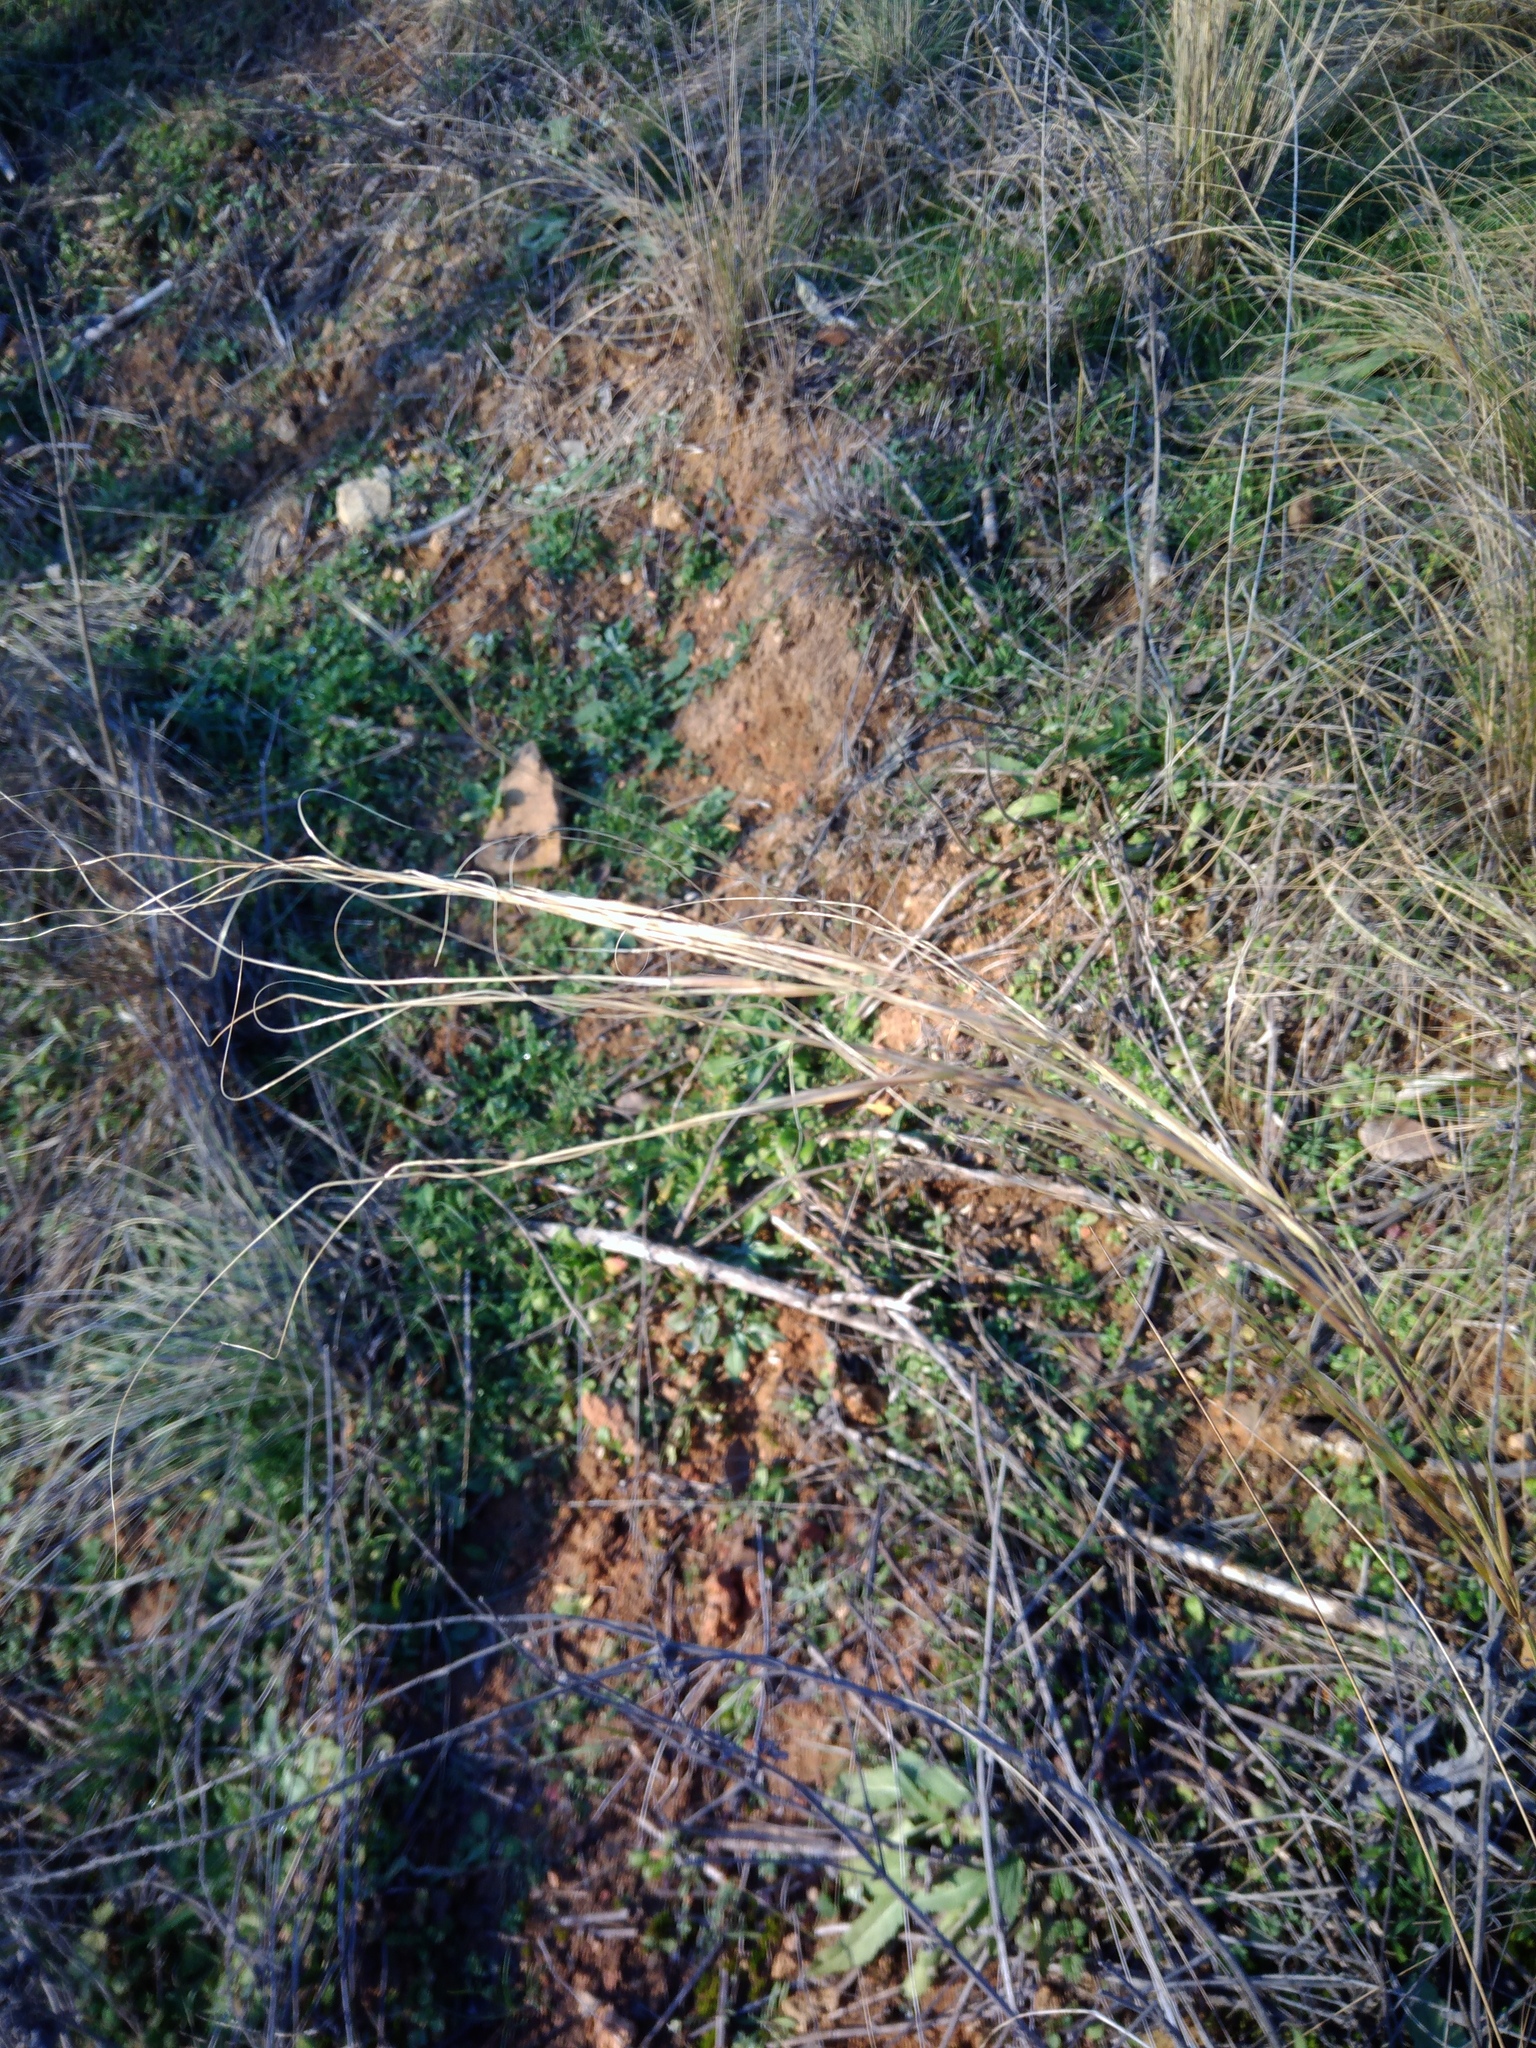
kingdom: Plantae
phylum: Tracheophyta
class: Liliopsida
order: Poales
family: Poaceae
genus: Stipa
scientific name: Stipa capillata
